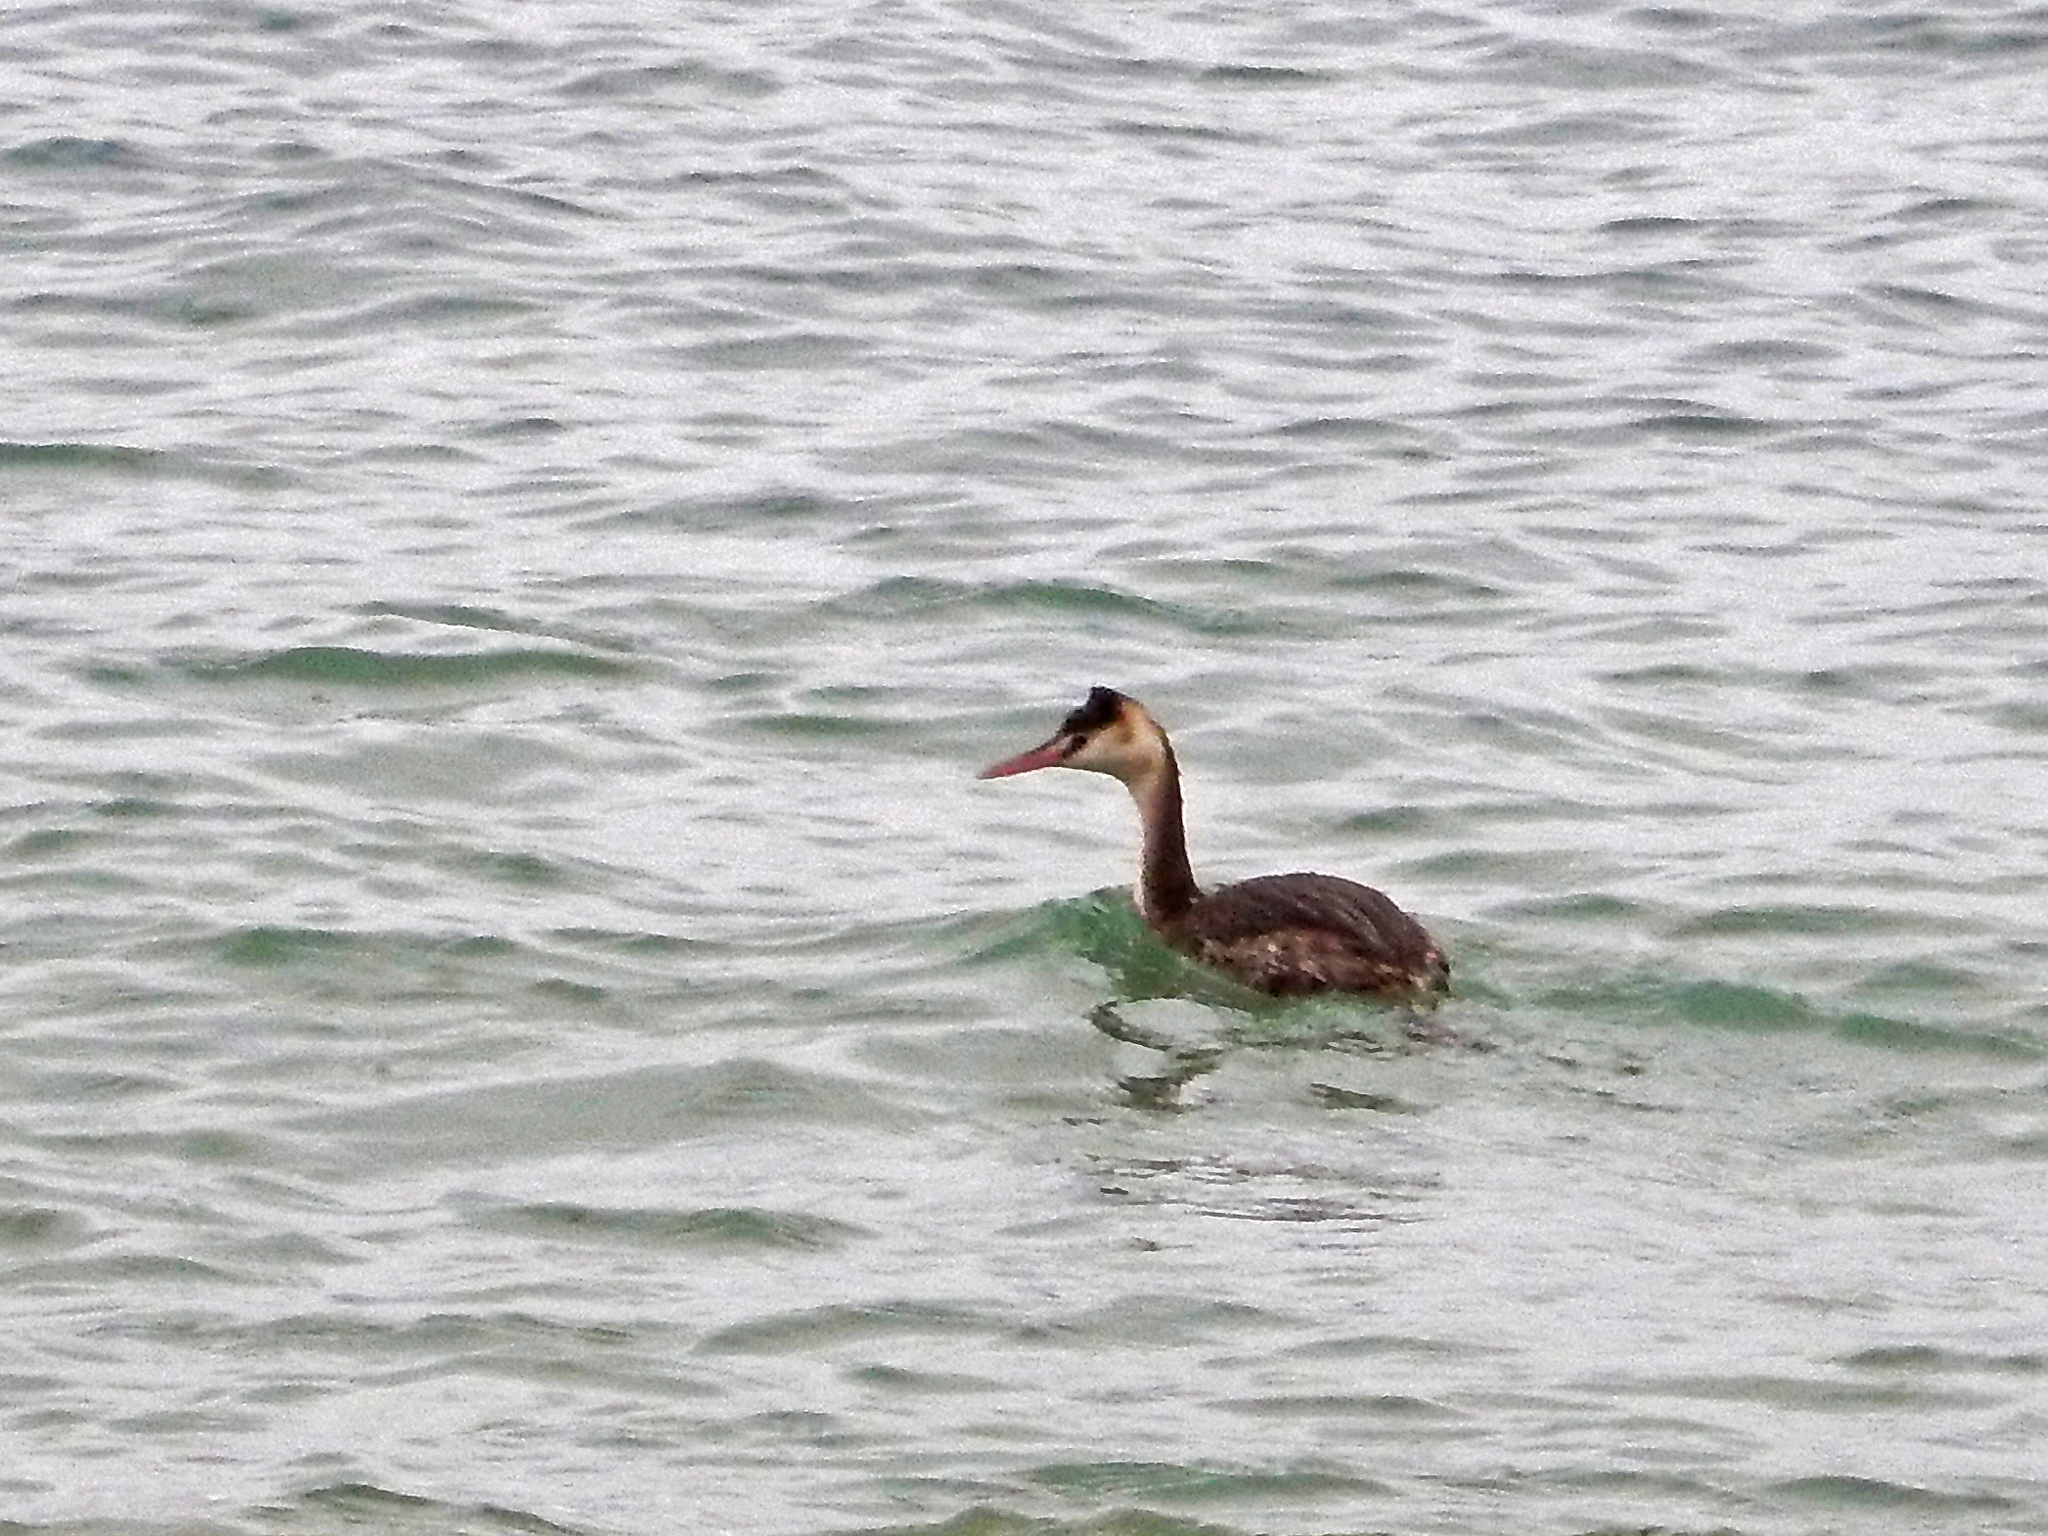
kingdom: Animalia
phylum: Chordata
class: Aves
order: Podicipediformes
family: Podicipedidae
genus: Podiceps
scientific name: Podiceps cristatus
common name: Great crested grebe
